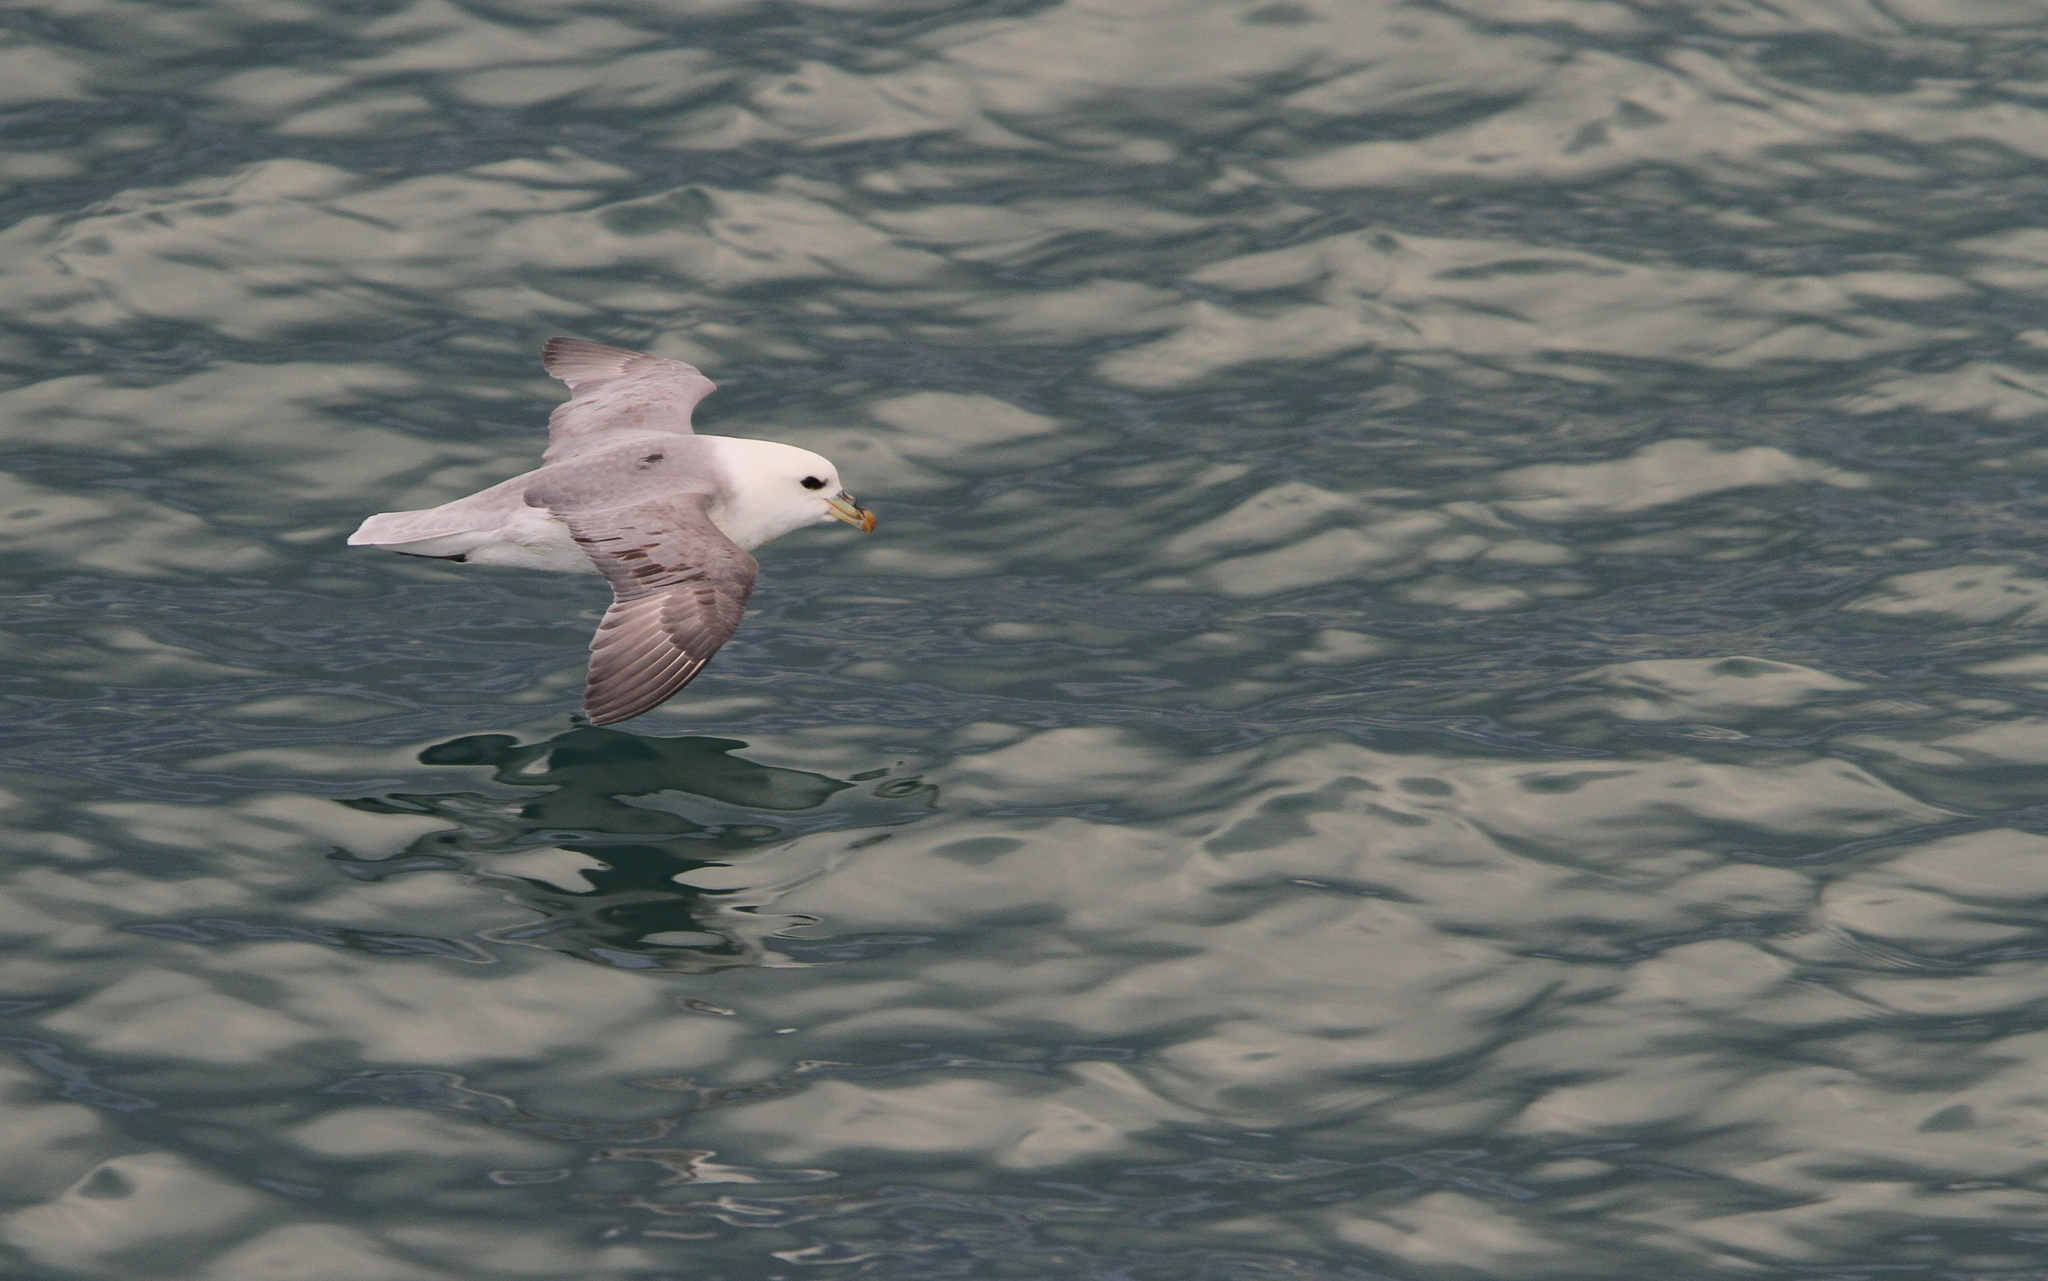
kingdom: Animalia
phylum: Chordata
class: Aves
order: Procellariiformes
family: Procellariidae
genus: Fulmarus
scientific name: Fulmarus glacialis
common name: Northern fulmar
